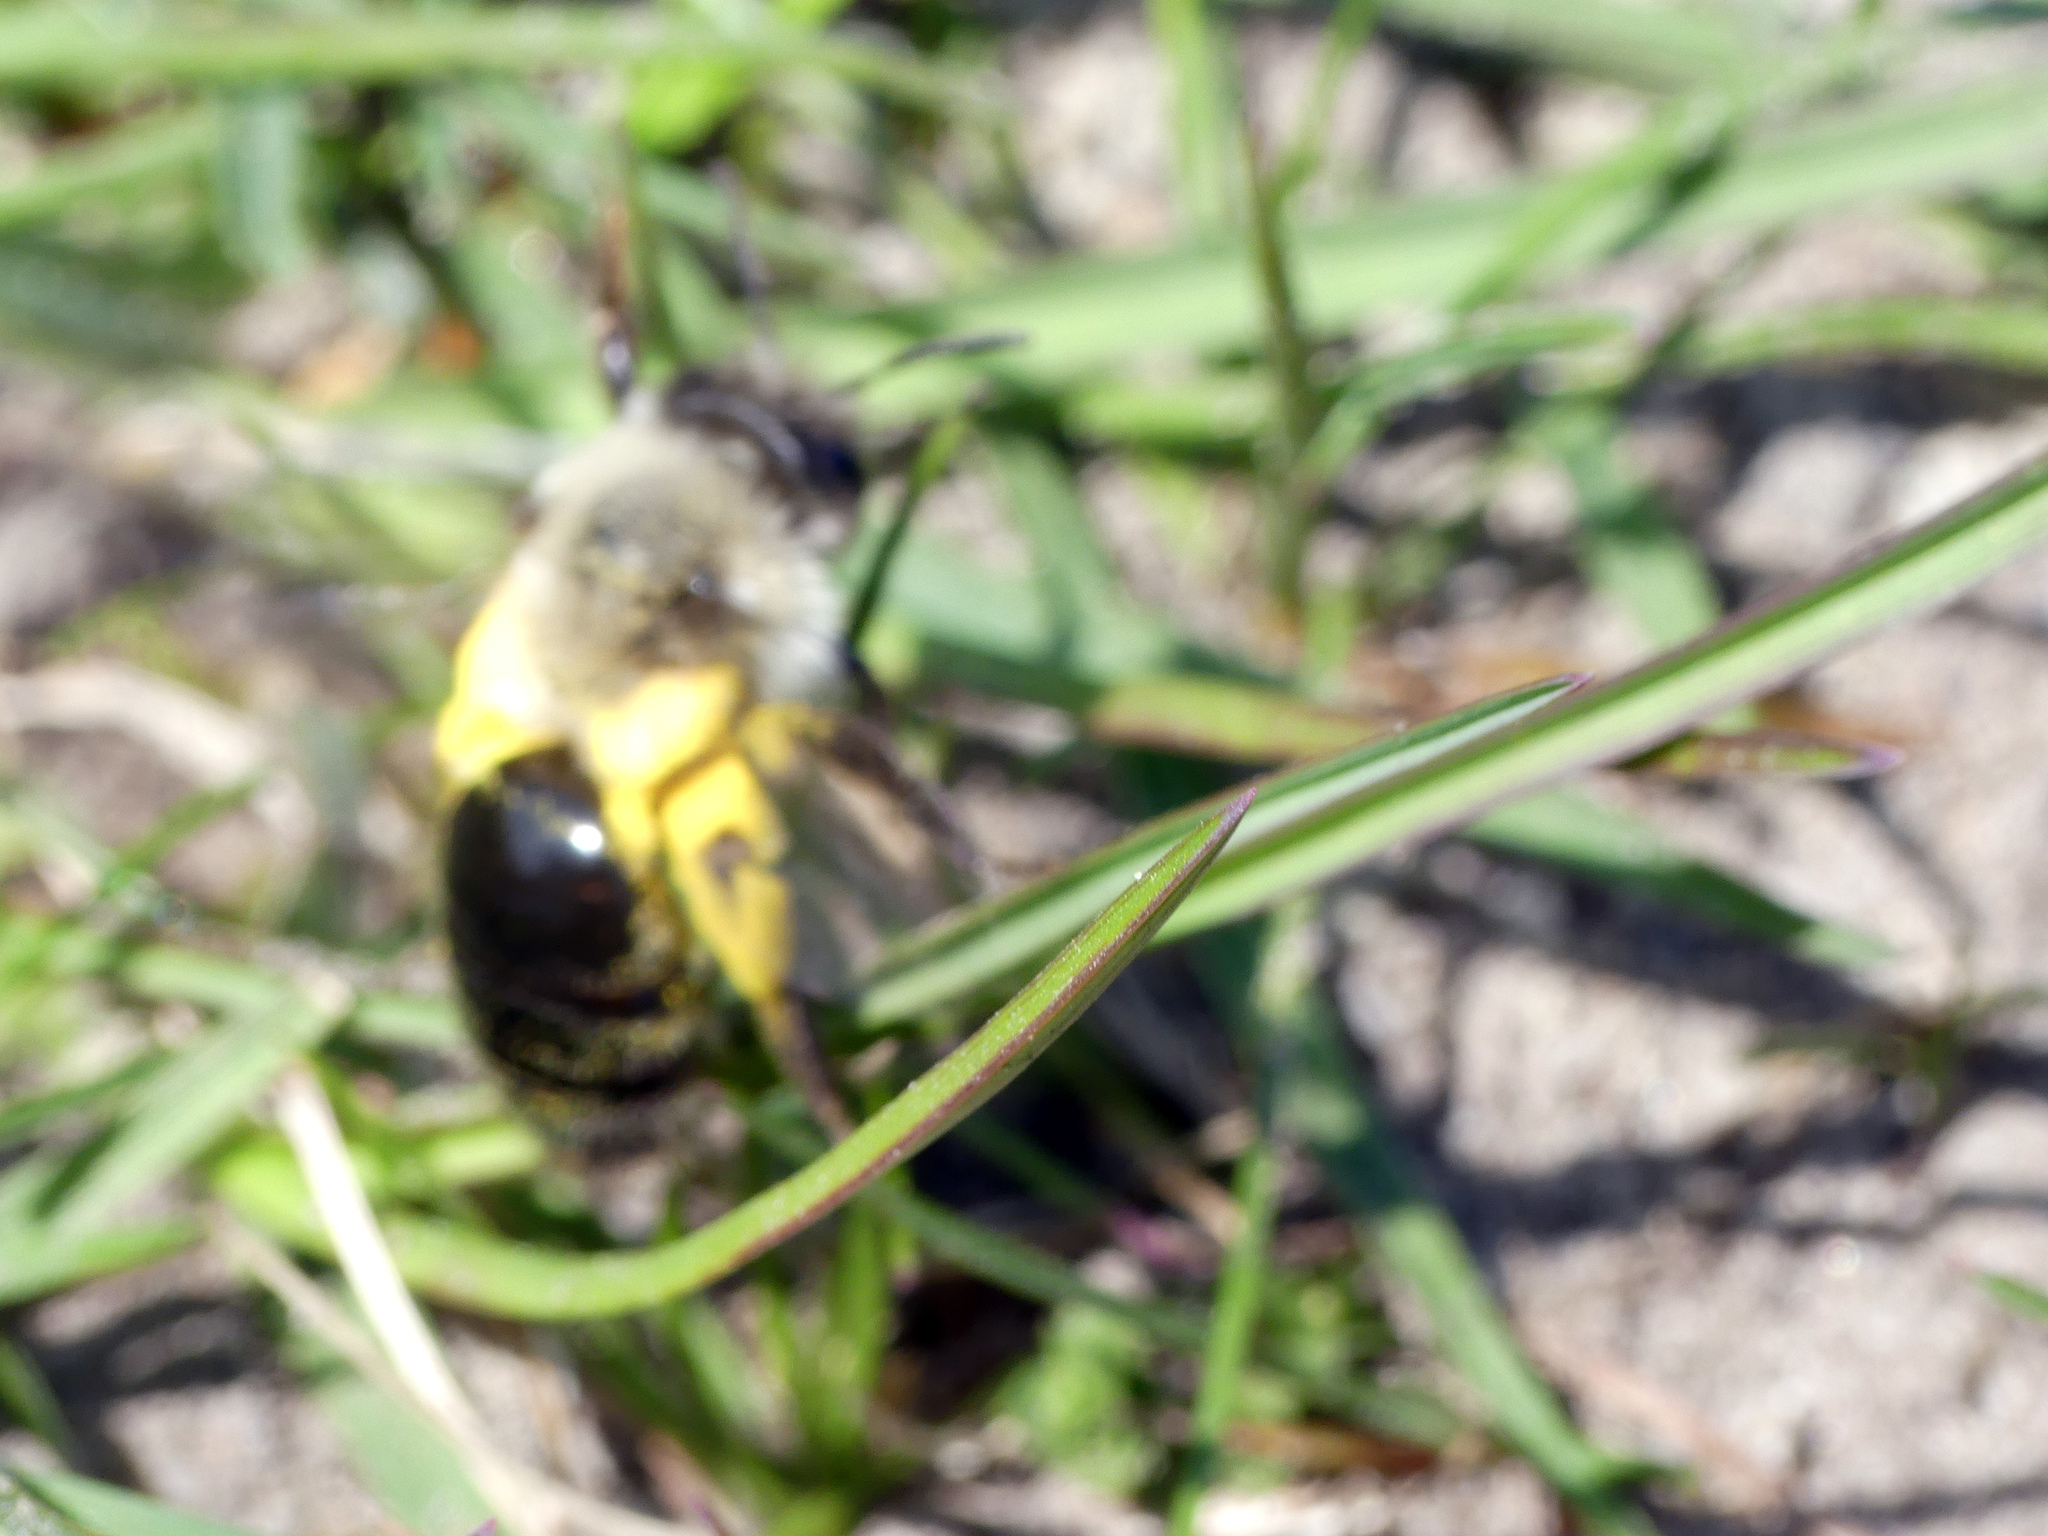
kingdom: Animalia
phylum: Arthropoda
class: Insecta
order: Hymenoptera
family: Andrenidae
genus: Andrena
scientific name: Andrena vaga
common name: Grey-backed mining bee
